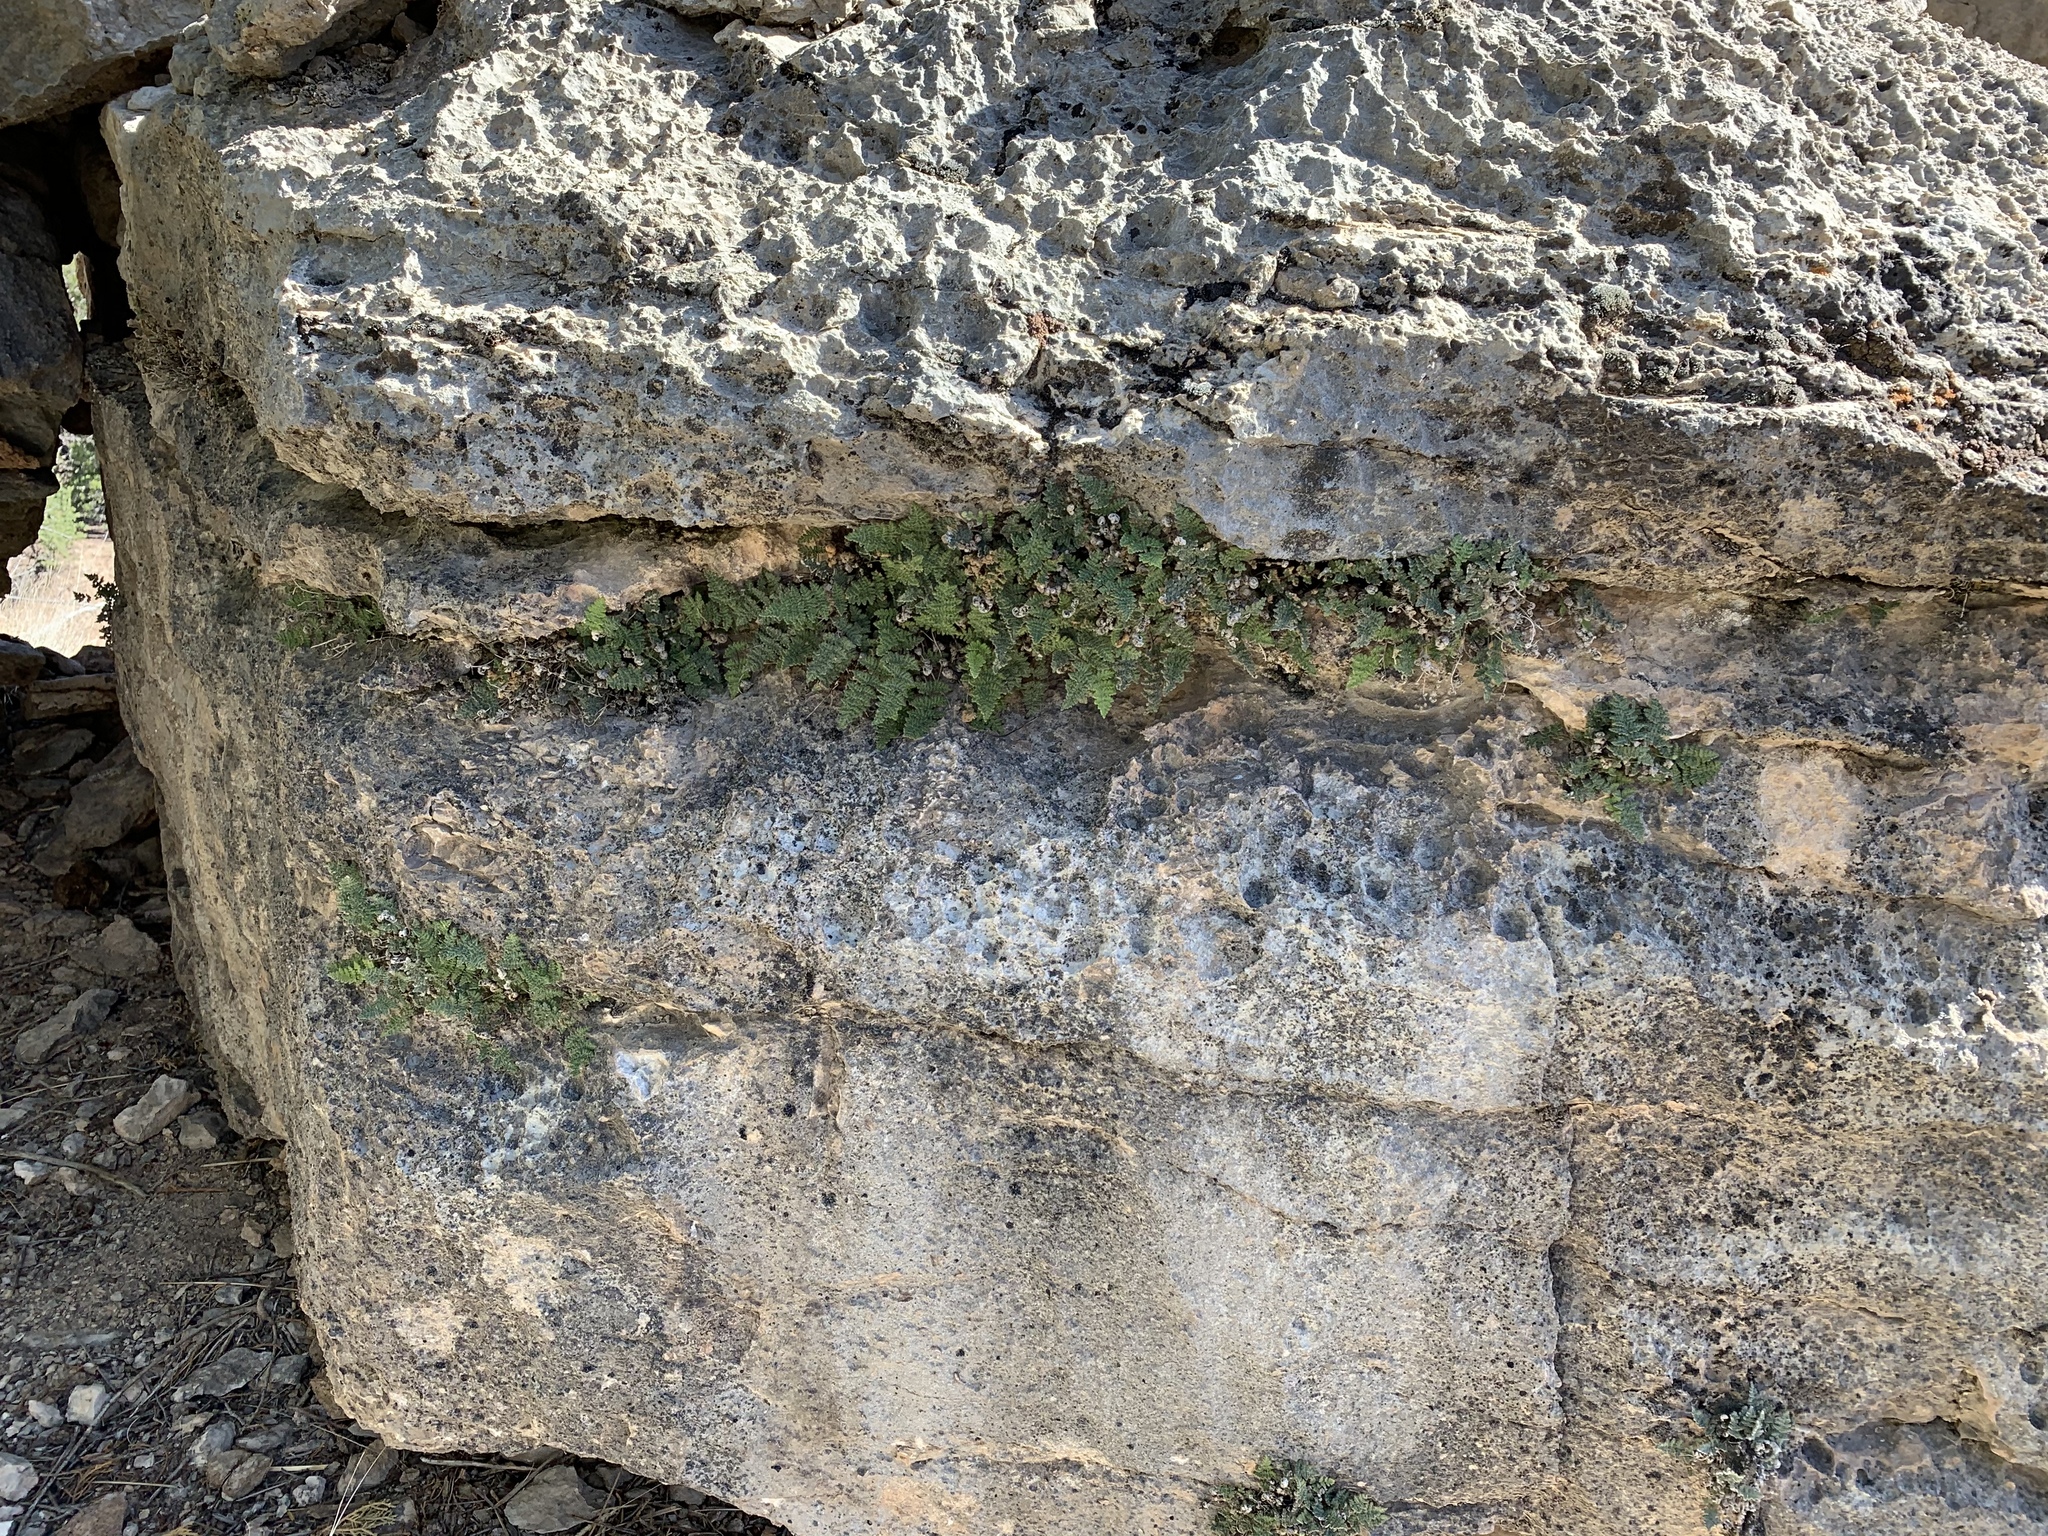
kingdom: Plantae
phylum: Tracheophyta
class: Polypodiopsida
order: Polypodiales
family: Pteridaceae
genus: Myriopteris
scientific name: Myriopteris gracilis
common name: Fee's lip fern
